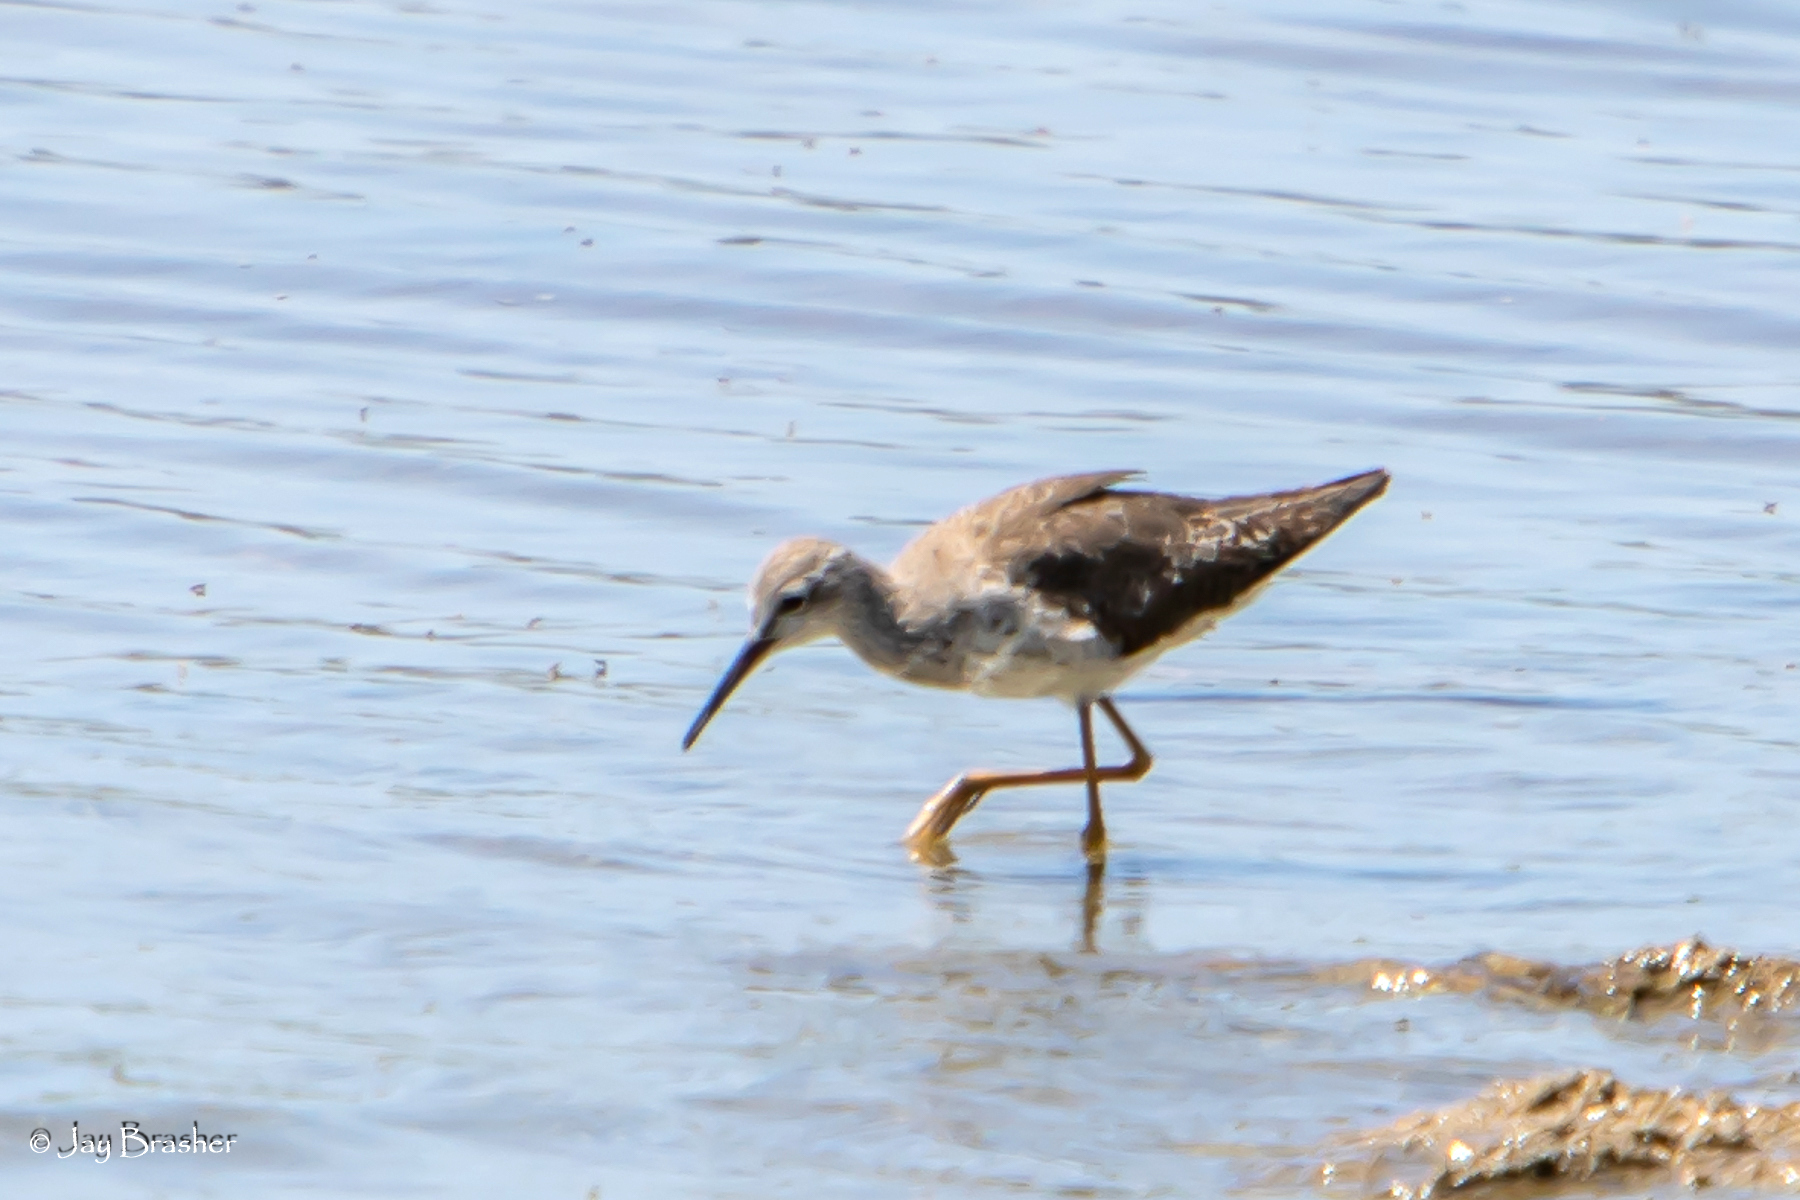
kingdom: Animalia
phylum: Chordata
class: Aves
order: Charadriiformes
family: Scolopacidae
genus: Tringa
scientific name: Tringa flavipes
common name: Lesser yellowlegs
